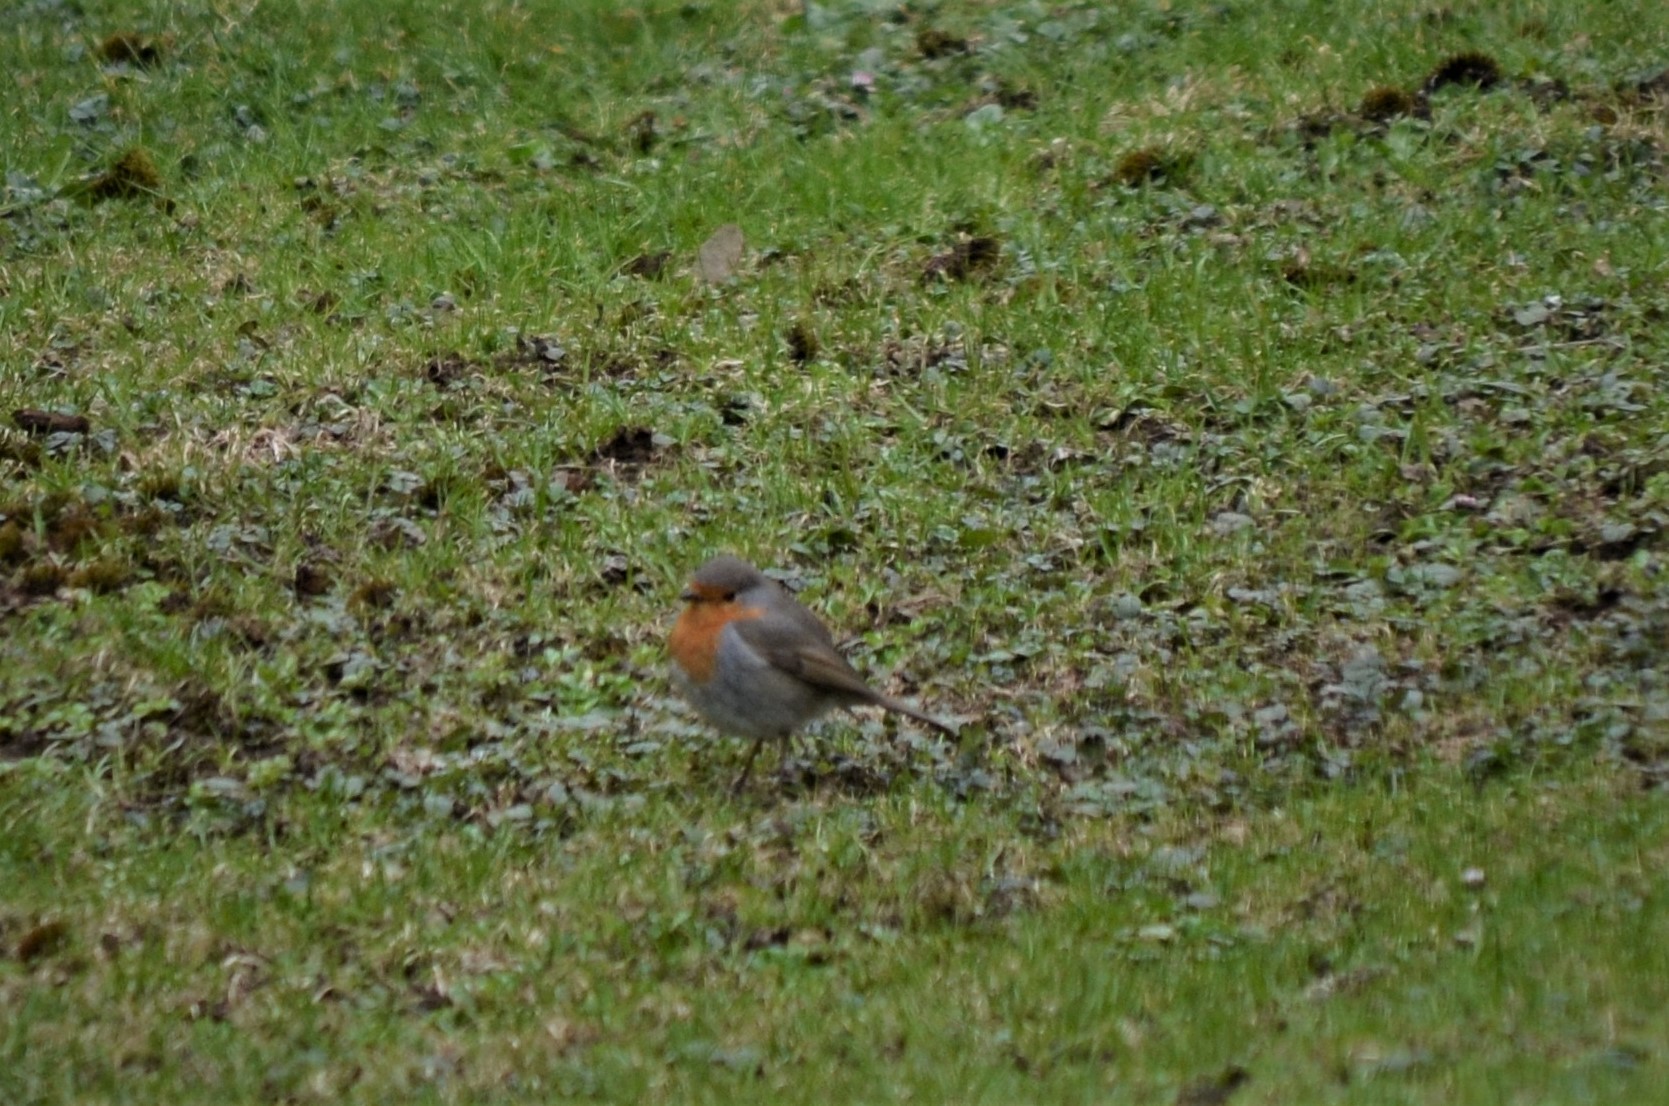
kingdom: Animalia
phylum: Chordata
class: Aves
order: Passeriformes
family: Muscicapidae
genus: Erithacus
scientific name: Erithacus rubecula
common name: European robin
